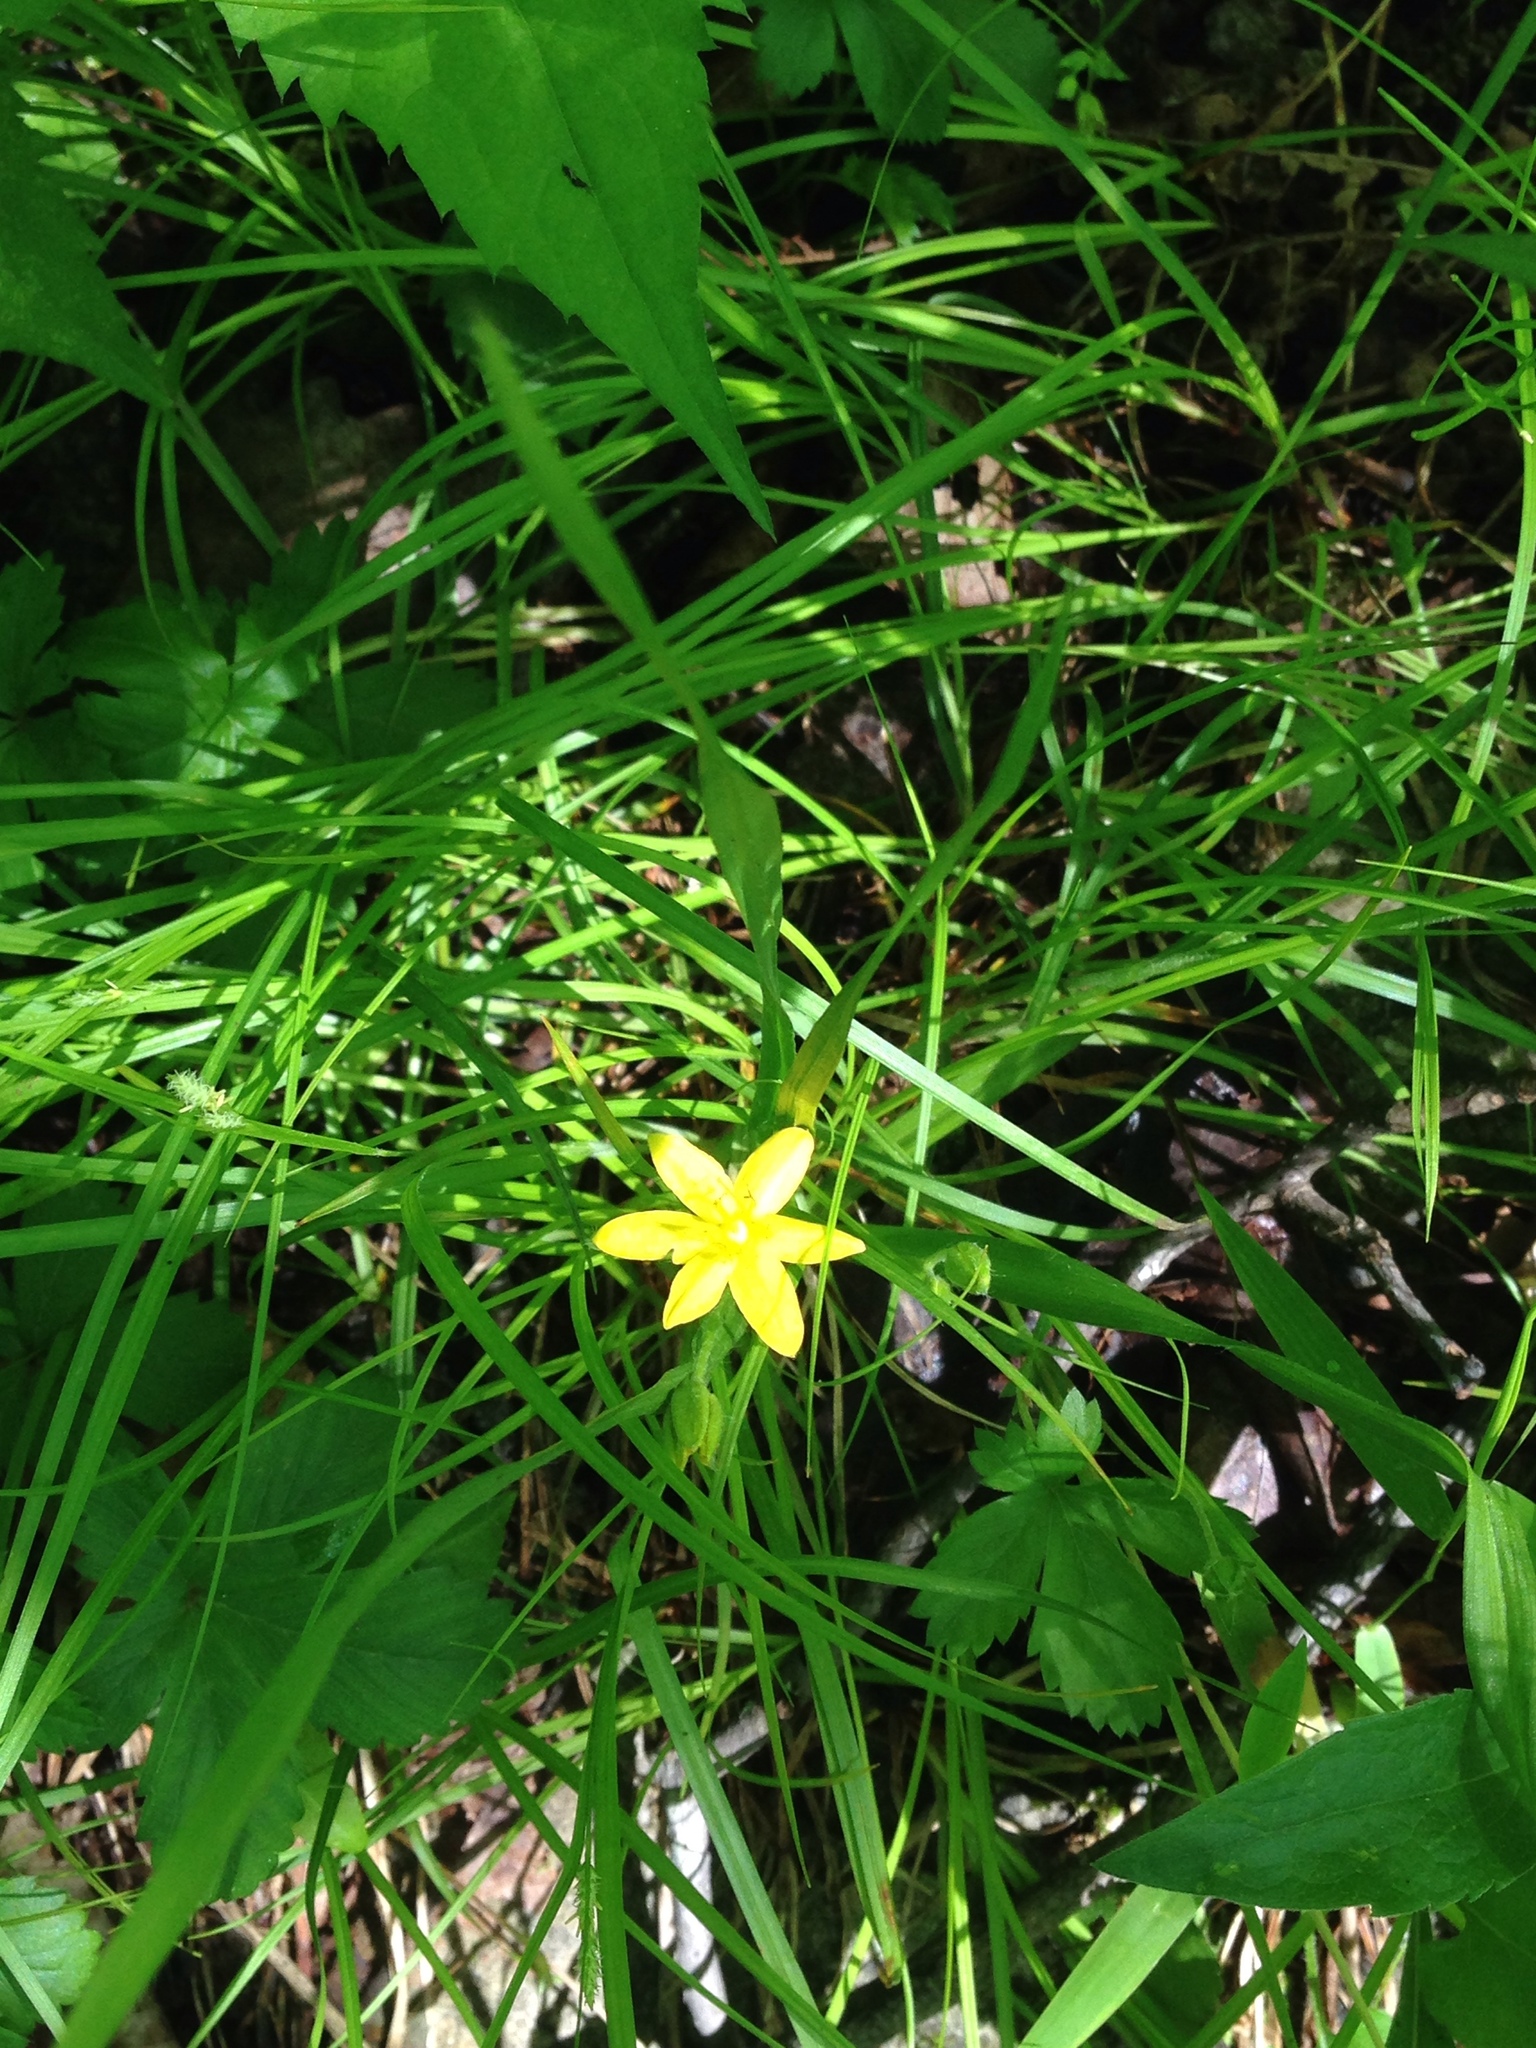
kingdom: Plantae
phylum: Tracheophyta
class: Liliopsida
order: Asparagales
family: Hypoxidaceae
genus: Hypoxis
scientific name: Hypoxis hirsuta
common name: Common goldstar
